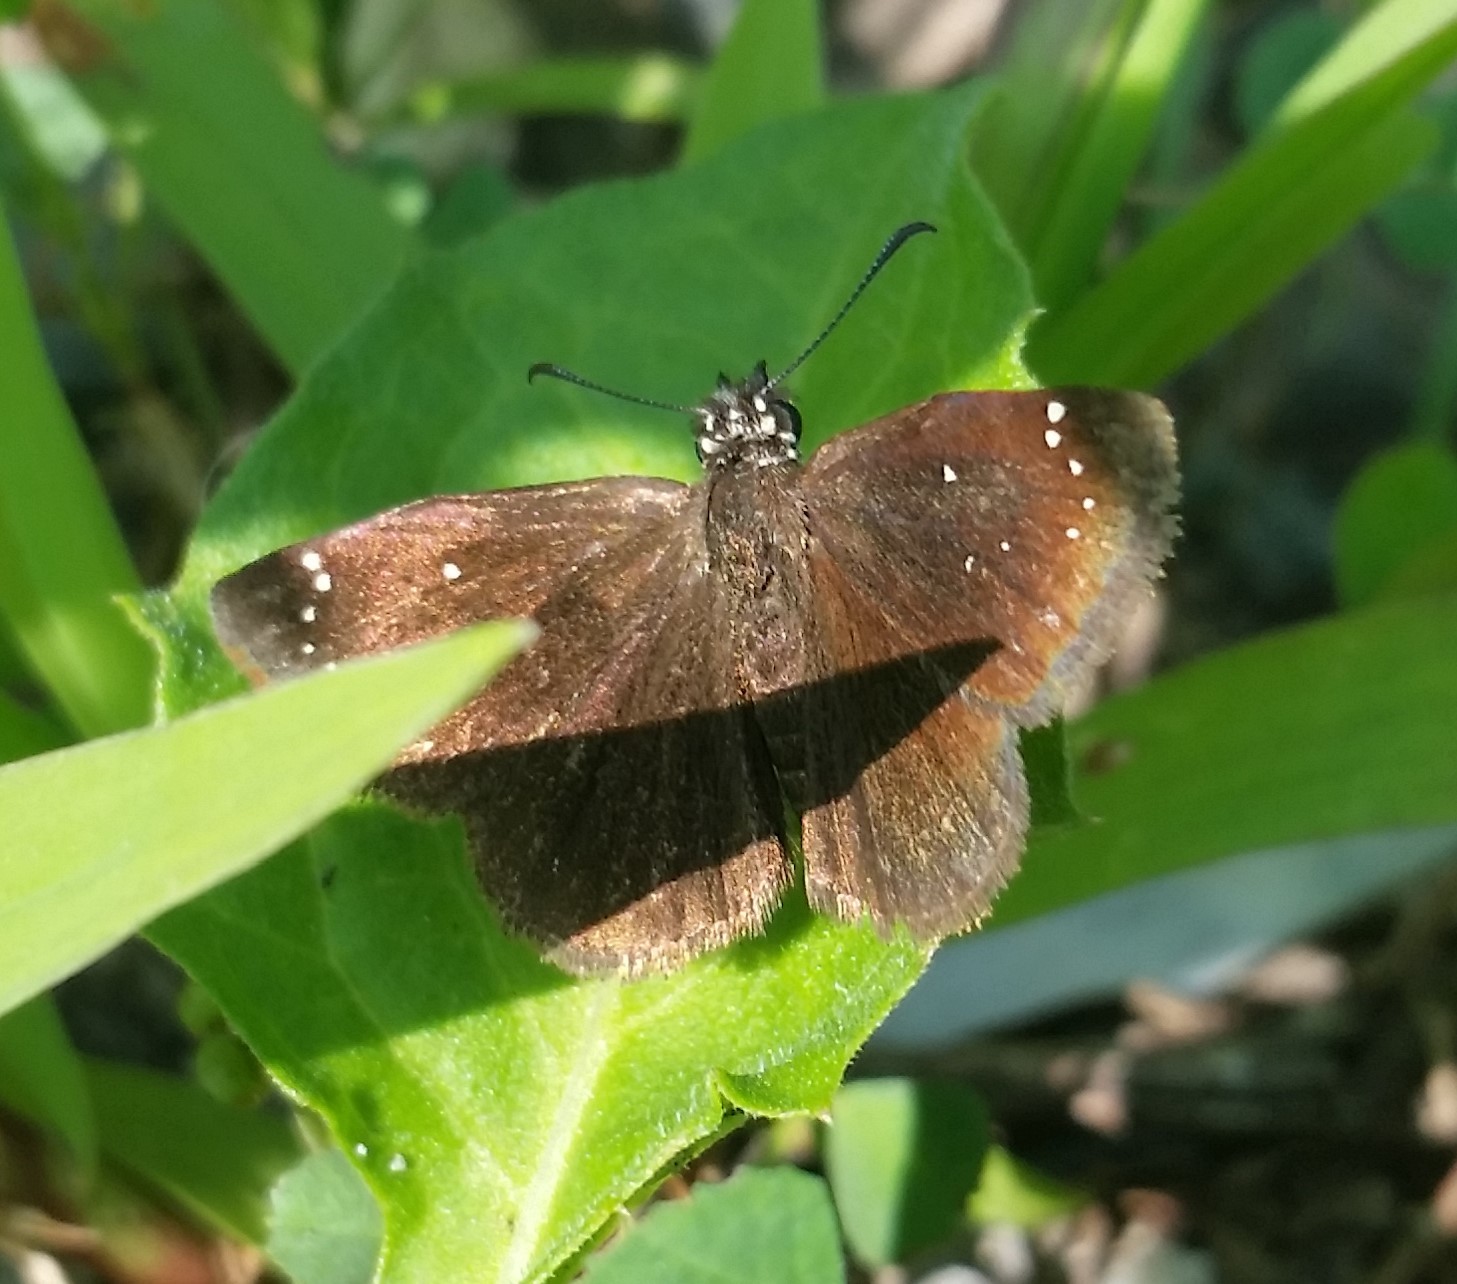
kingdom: Animalia
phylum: Arthropoda
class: Insecta
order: Lepidoptera
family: Hesperiidae
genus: Pholisora
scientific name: Pholisora catullus
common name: Common sootywing
